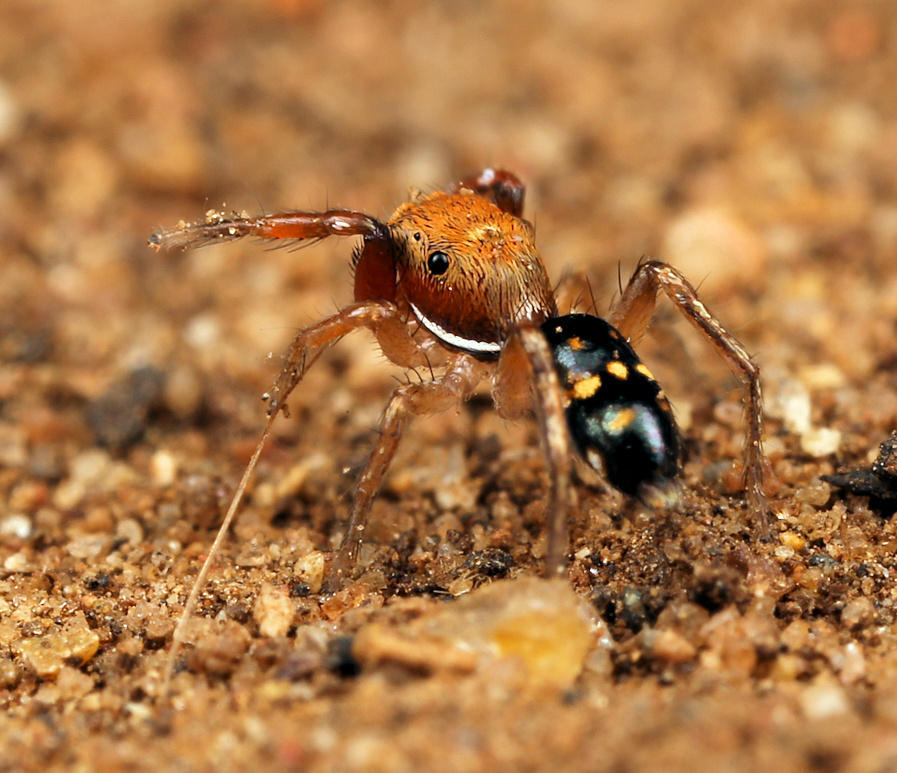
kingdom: Animalia
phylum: Arthropoda
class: Arachnida
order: Araneae
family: Salticidae
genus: Natta
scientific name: Natta horizontalis
